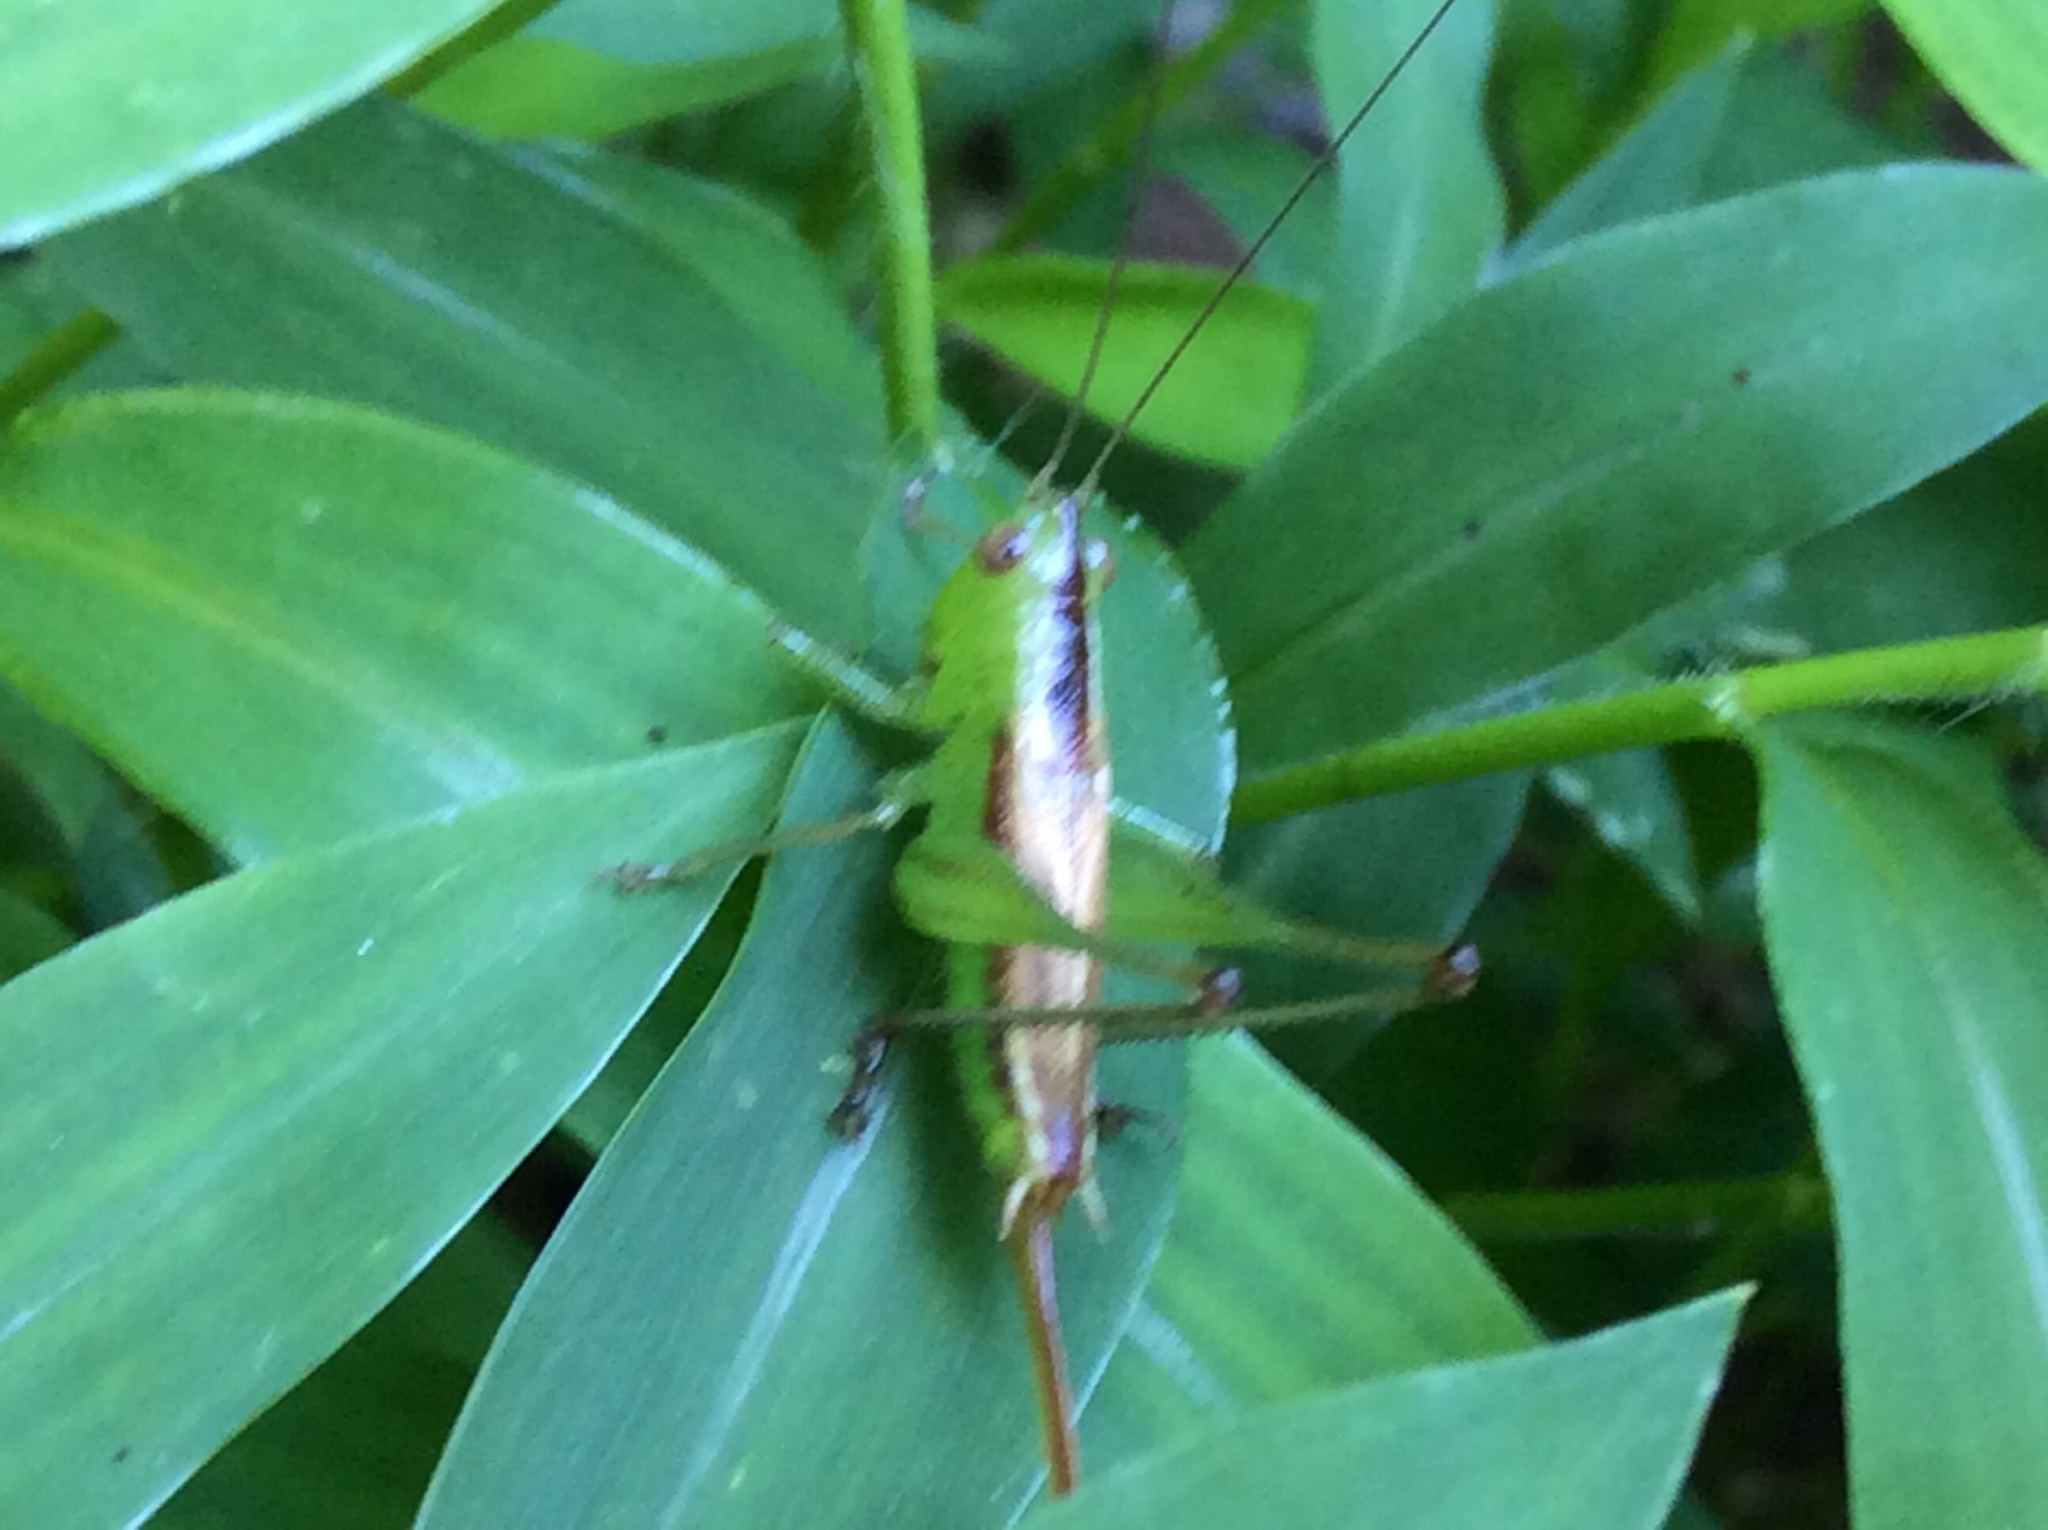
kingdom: Animalia
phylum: Arthropoda
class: Insecta
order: Orthoptera
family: Tettigoniidae
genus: Conocephalus
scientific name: Conocephalus brevipennis
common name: Short-winged meadow katydid
